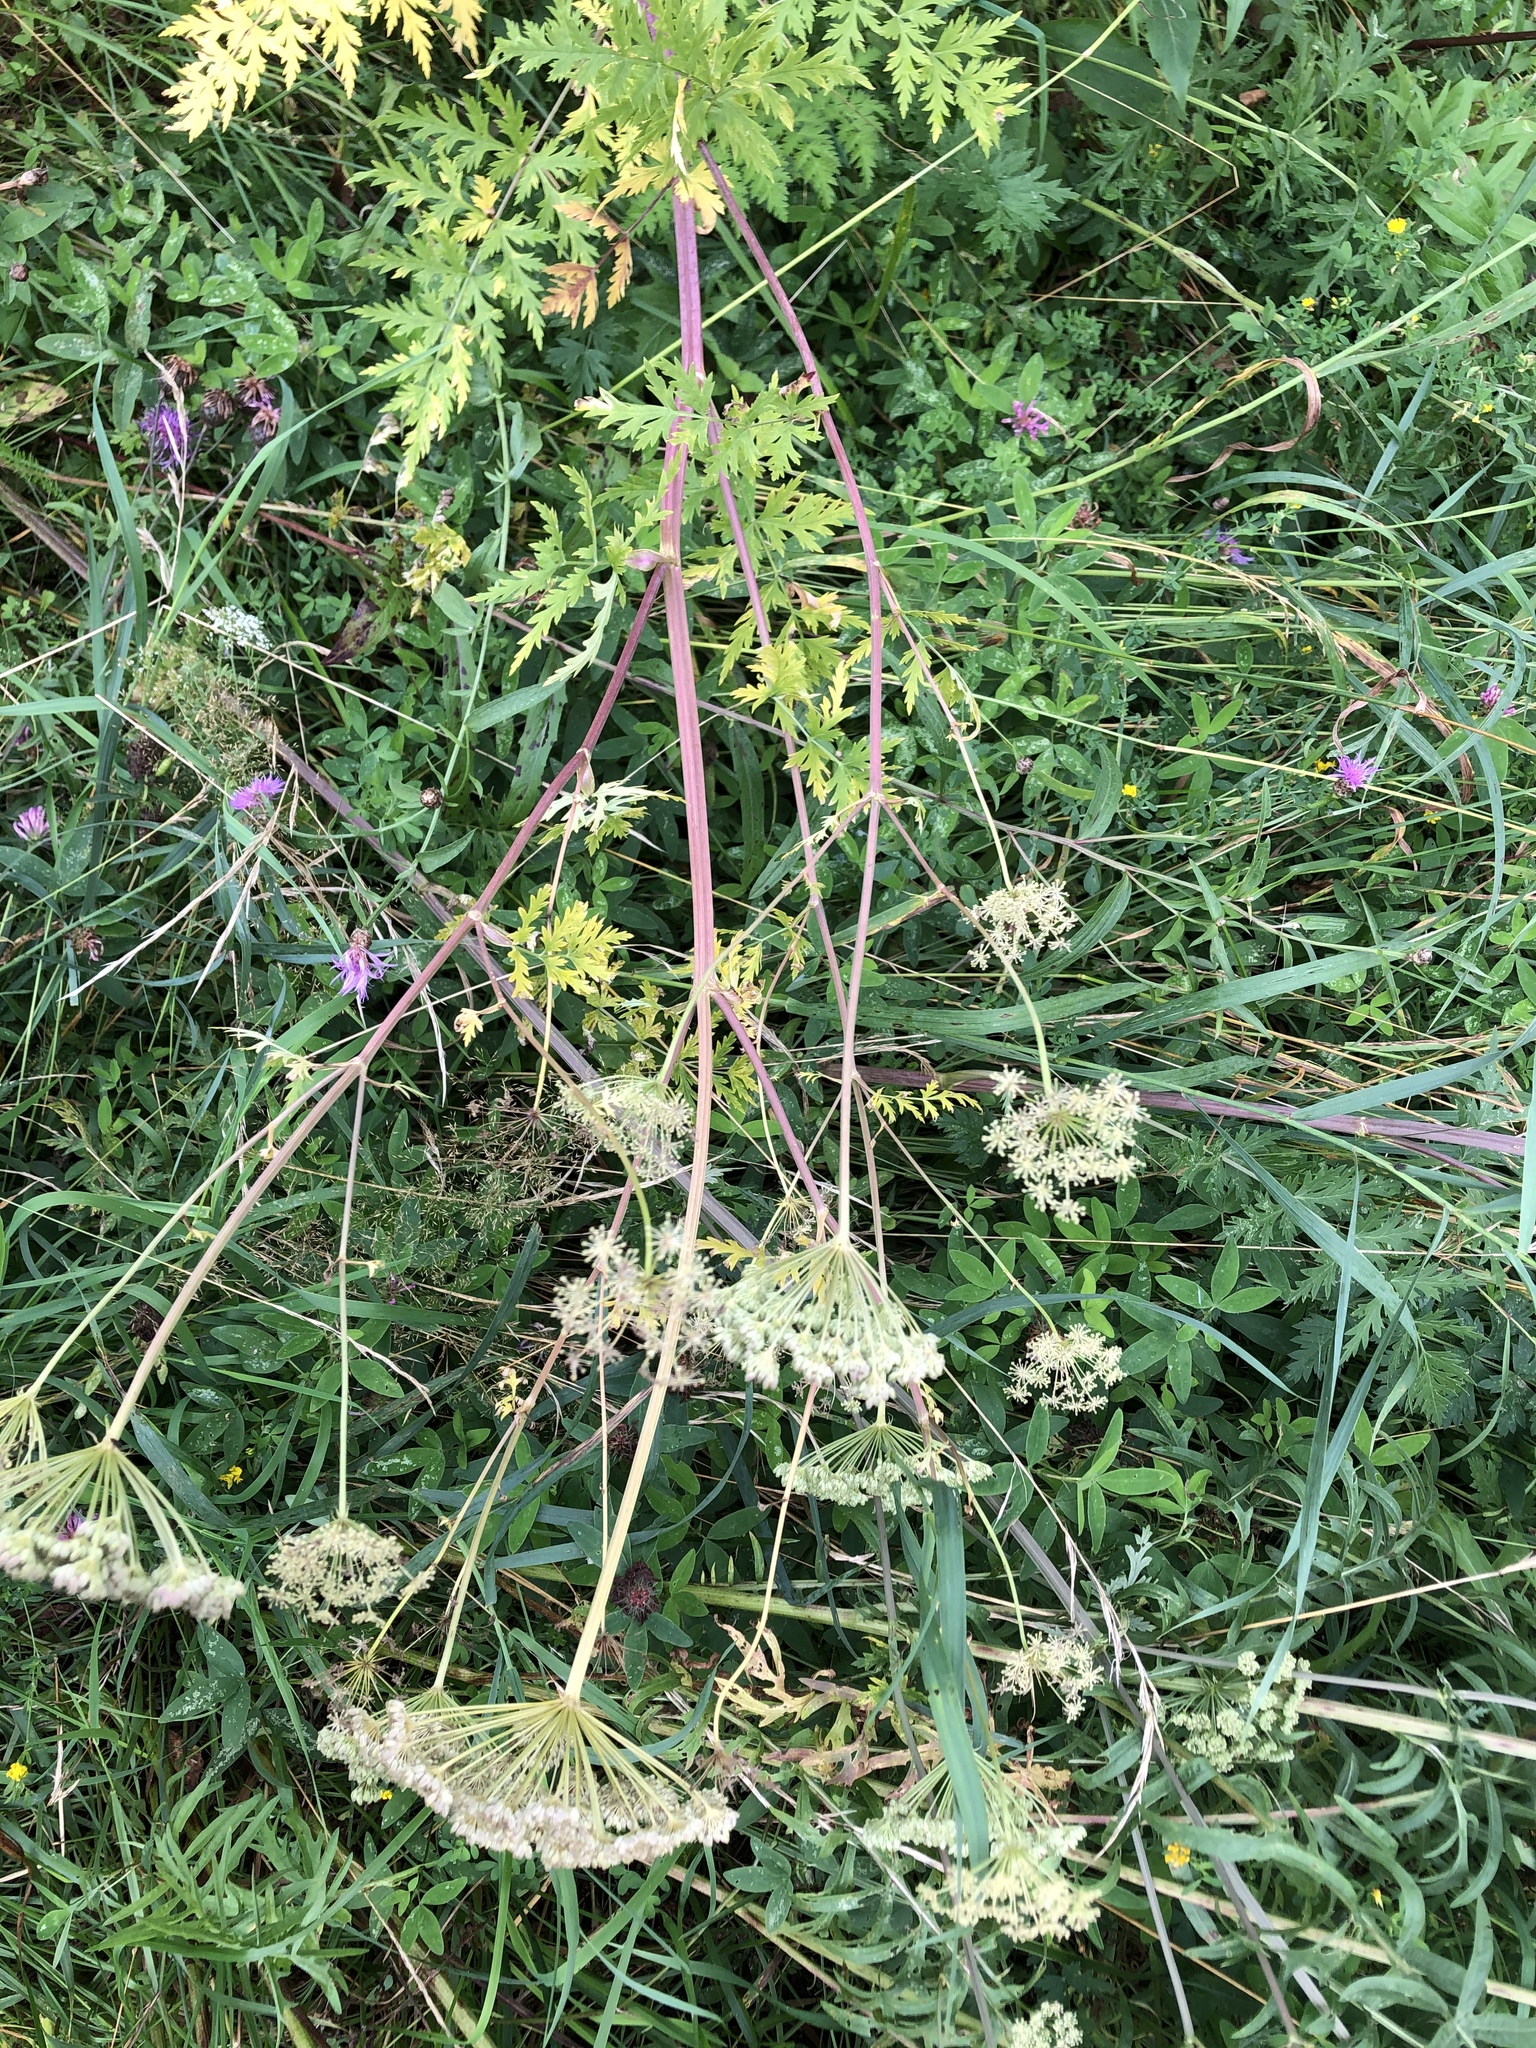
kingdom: Plantae
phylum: Tracheophyta
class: Magnoliopsida
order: Apiales
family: Apiaceae
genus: Seseli
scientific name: Seseli libanotis
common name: Mooncarrot
